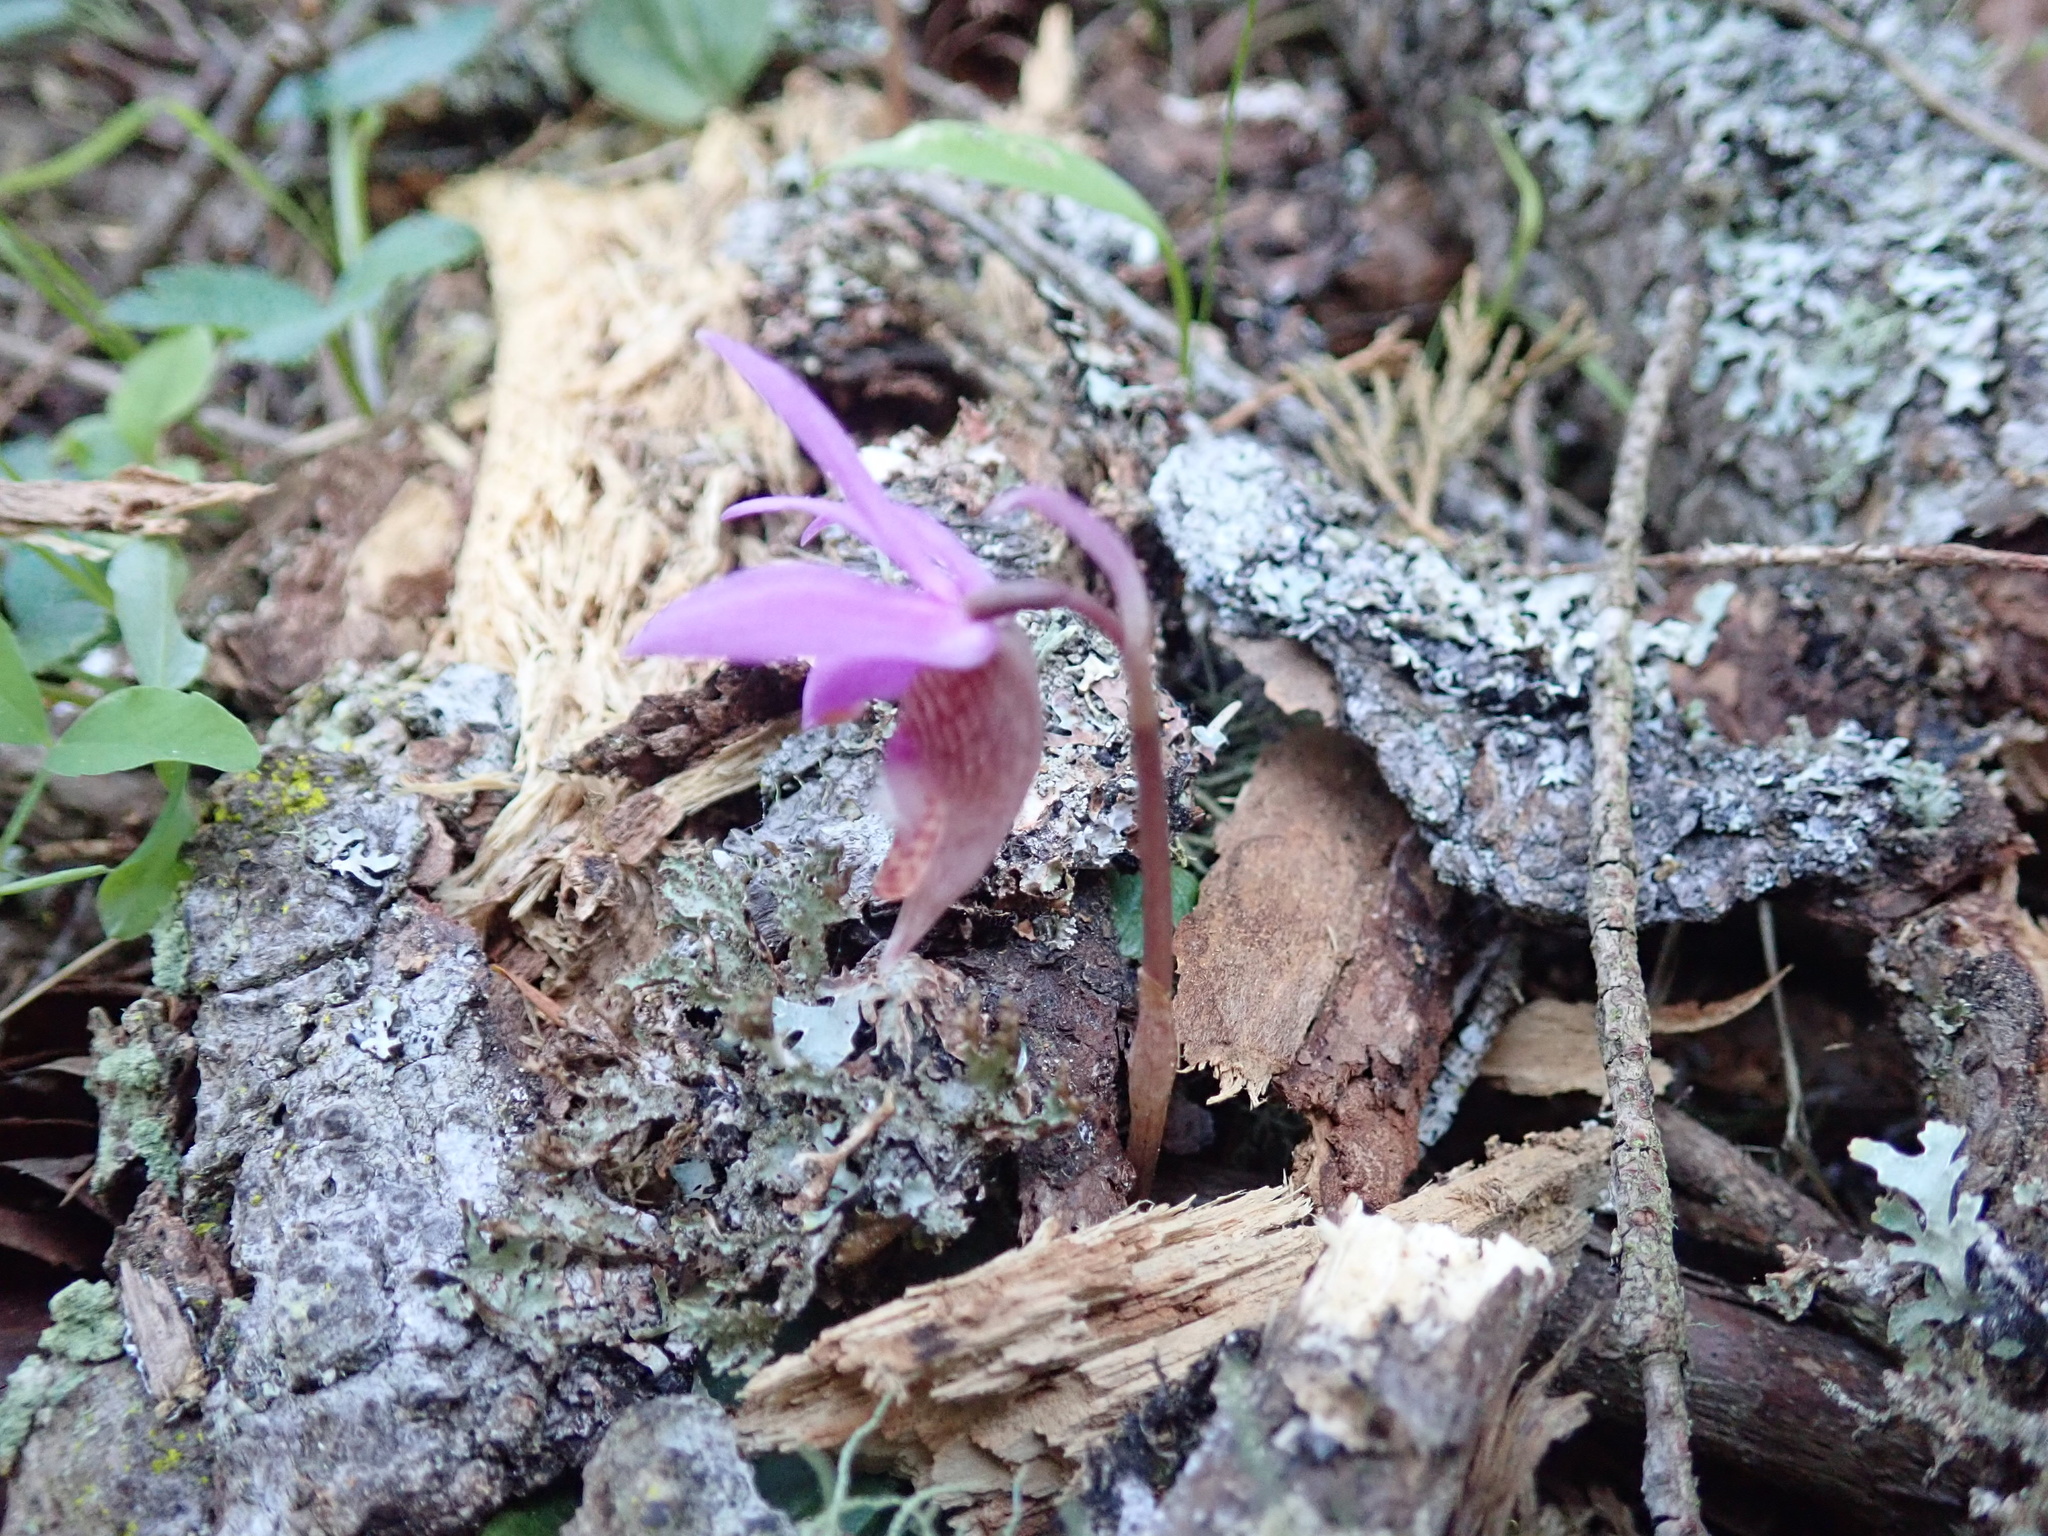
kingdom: Plantae
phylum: Tracheophyta
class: Liliopsida
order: Asparagales
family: Orchidaceae
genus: Calypso
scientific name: Calypso bulbosa
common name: Calypso
